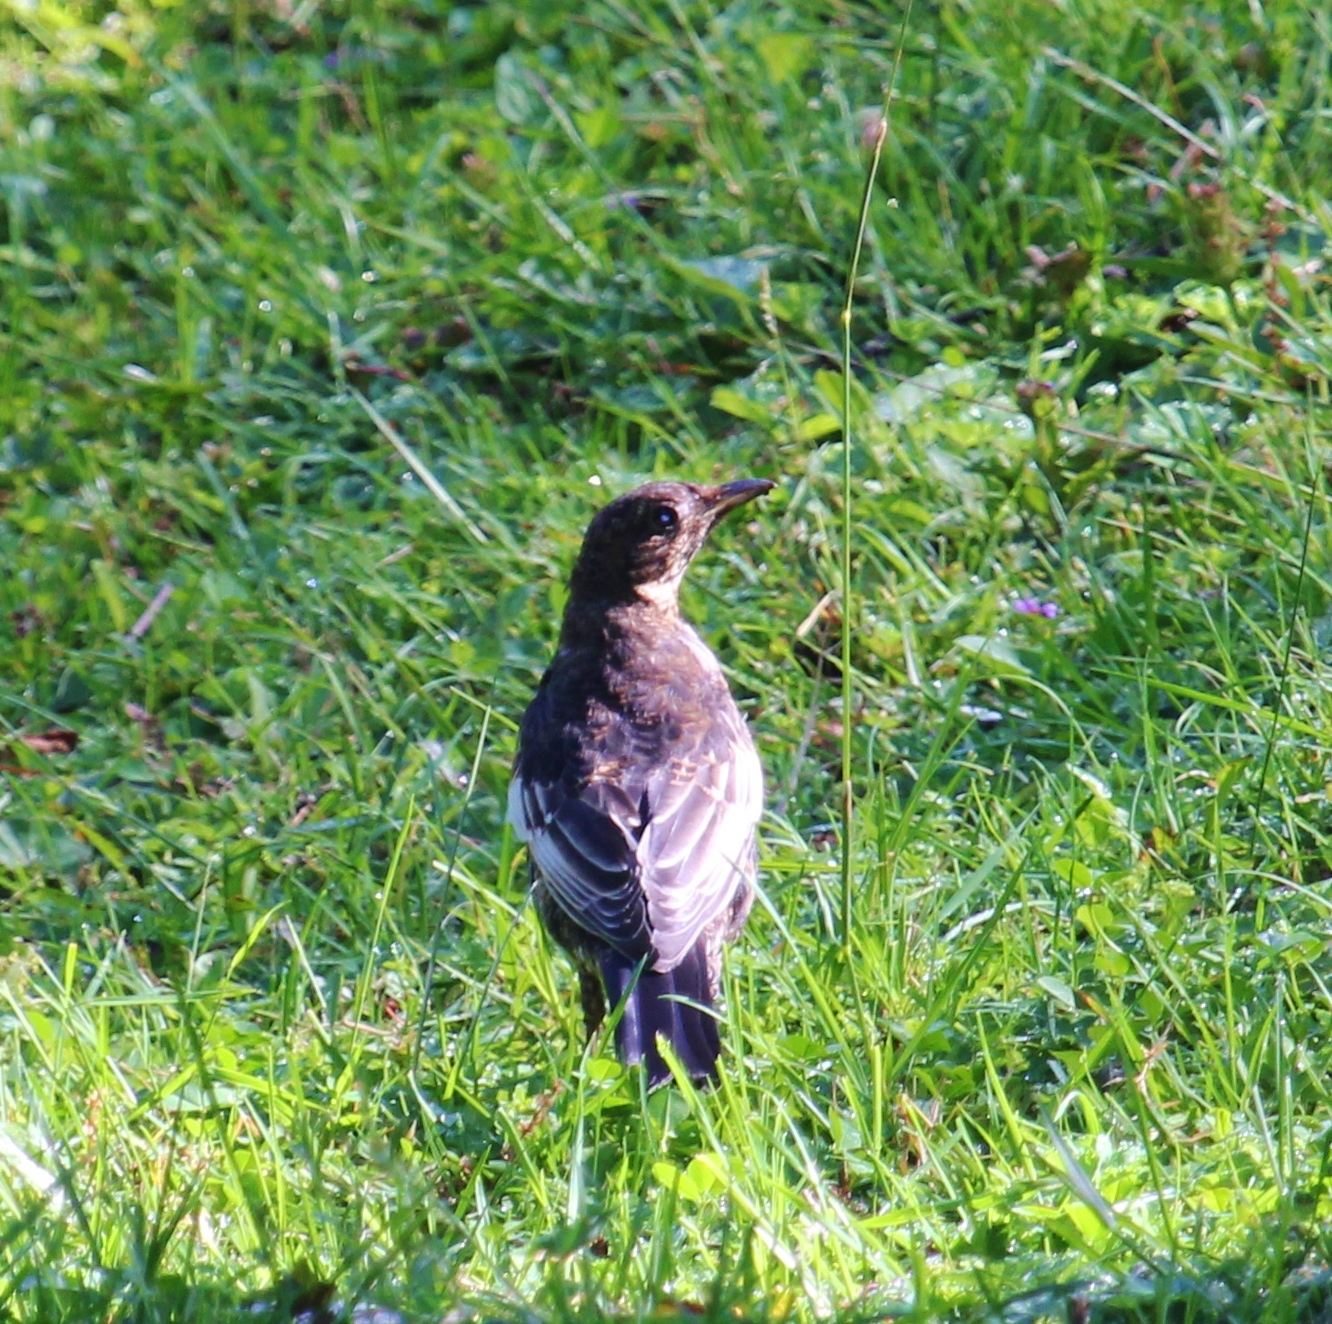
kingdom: Animalia
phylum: Chordata
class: Aves
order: Passeriformes
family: Turdidae
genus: Turdus
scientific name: Turdus torquatus
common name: Ring ouzel
